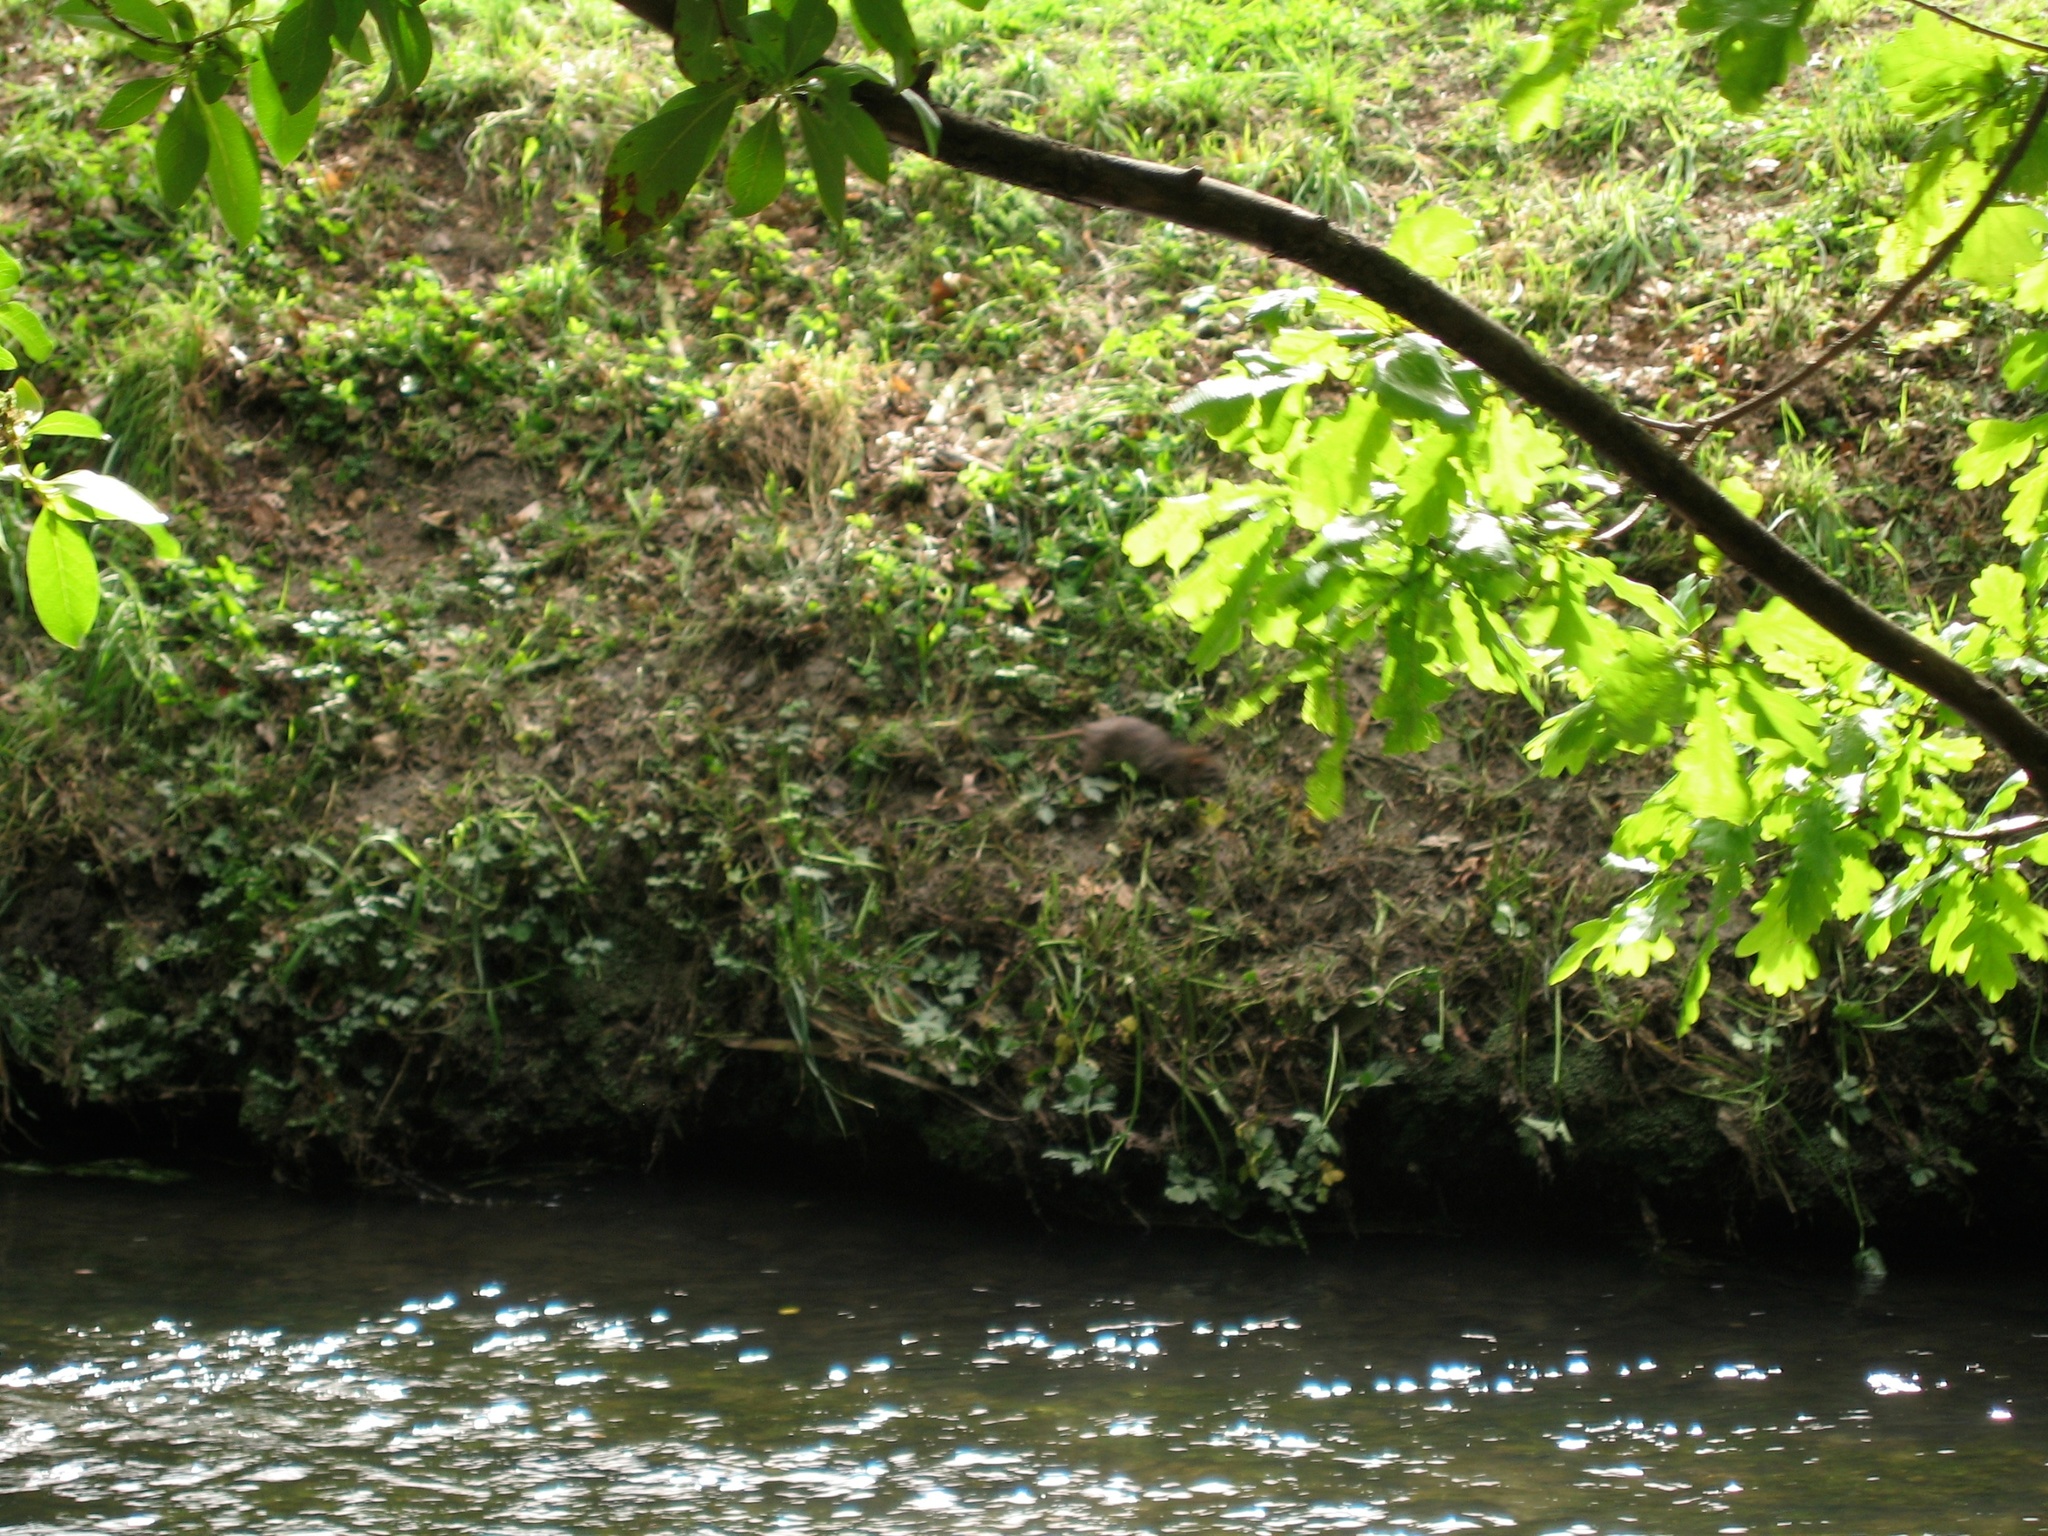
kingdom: Animalia
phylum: Chordata
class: Mammalia
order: Rodentia
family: Muridae
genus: Rattus
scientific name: Rattus norvegicus
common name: Brown rat
